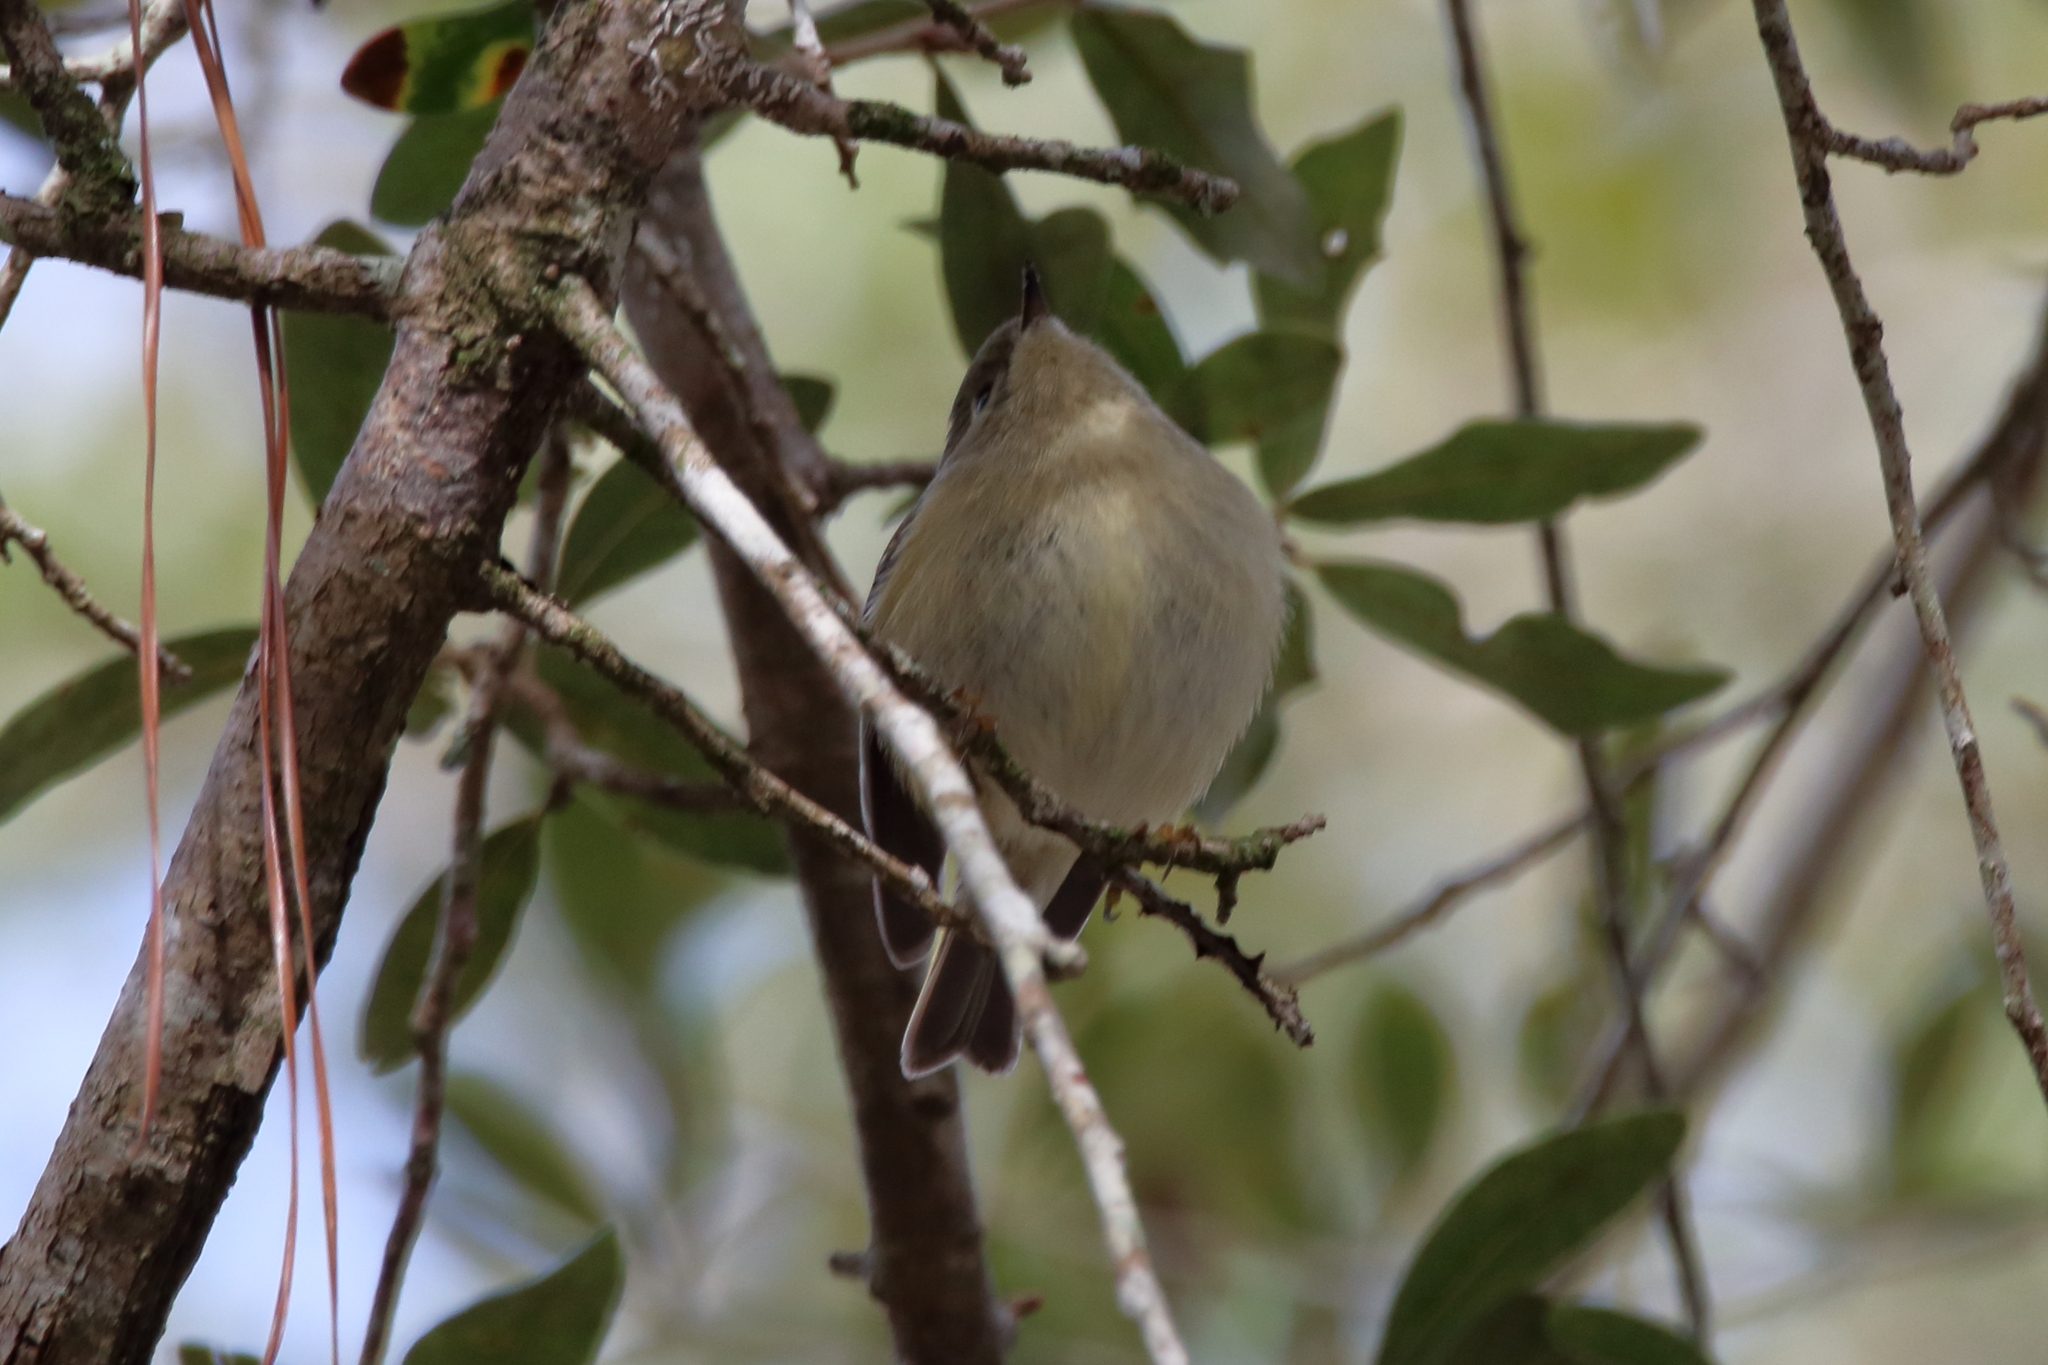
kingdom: Animalia
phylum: Chordata
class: Aves
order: Passeriformes
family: Regulidae
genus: Regulus
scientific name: Regulus calendula
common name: Ruby-crowned kinglet
